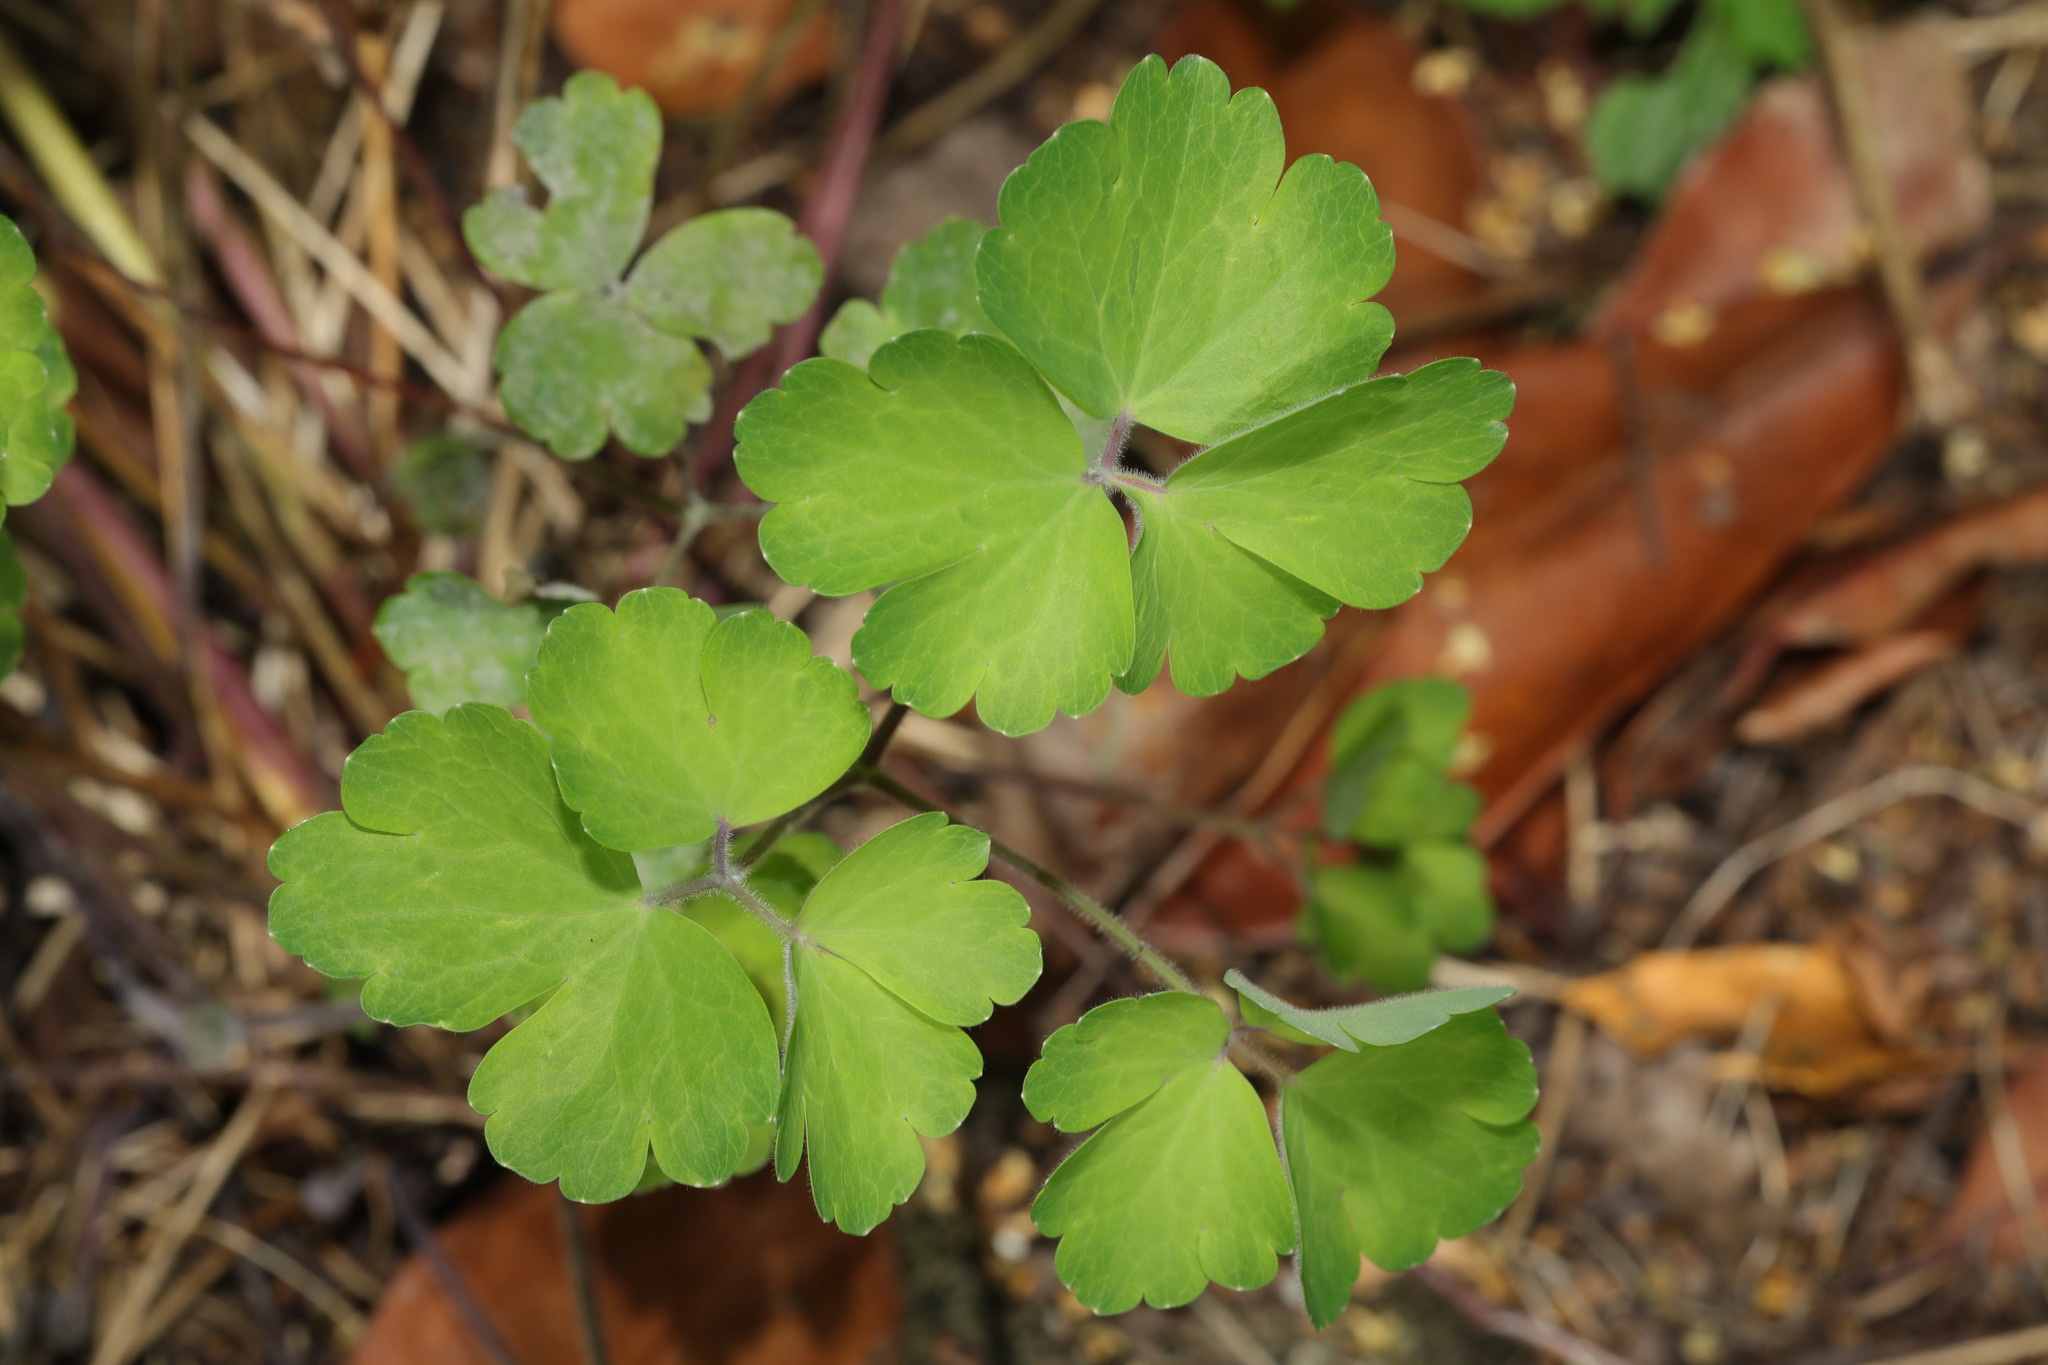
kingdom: Plantae
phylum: Tracheophyta
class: Magnoliopsida
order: Ranunculales
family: Ranunculaceae
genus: Aquilegia
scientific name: Aquilegia vulgaris
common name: Columbine
